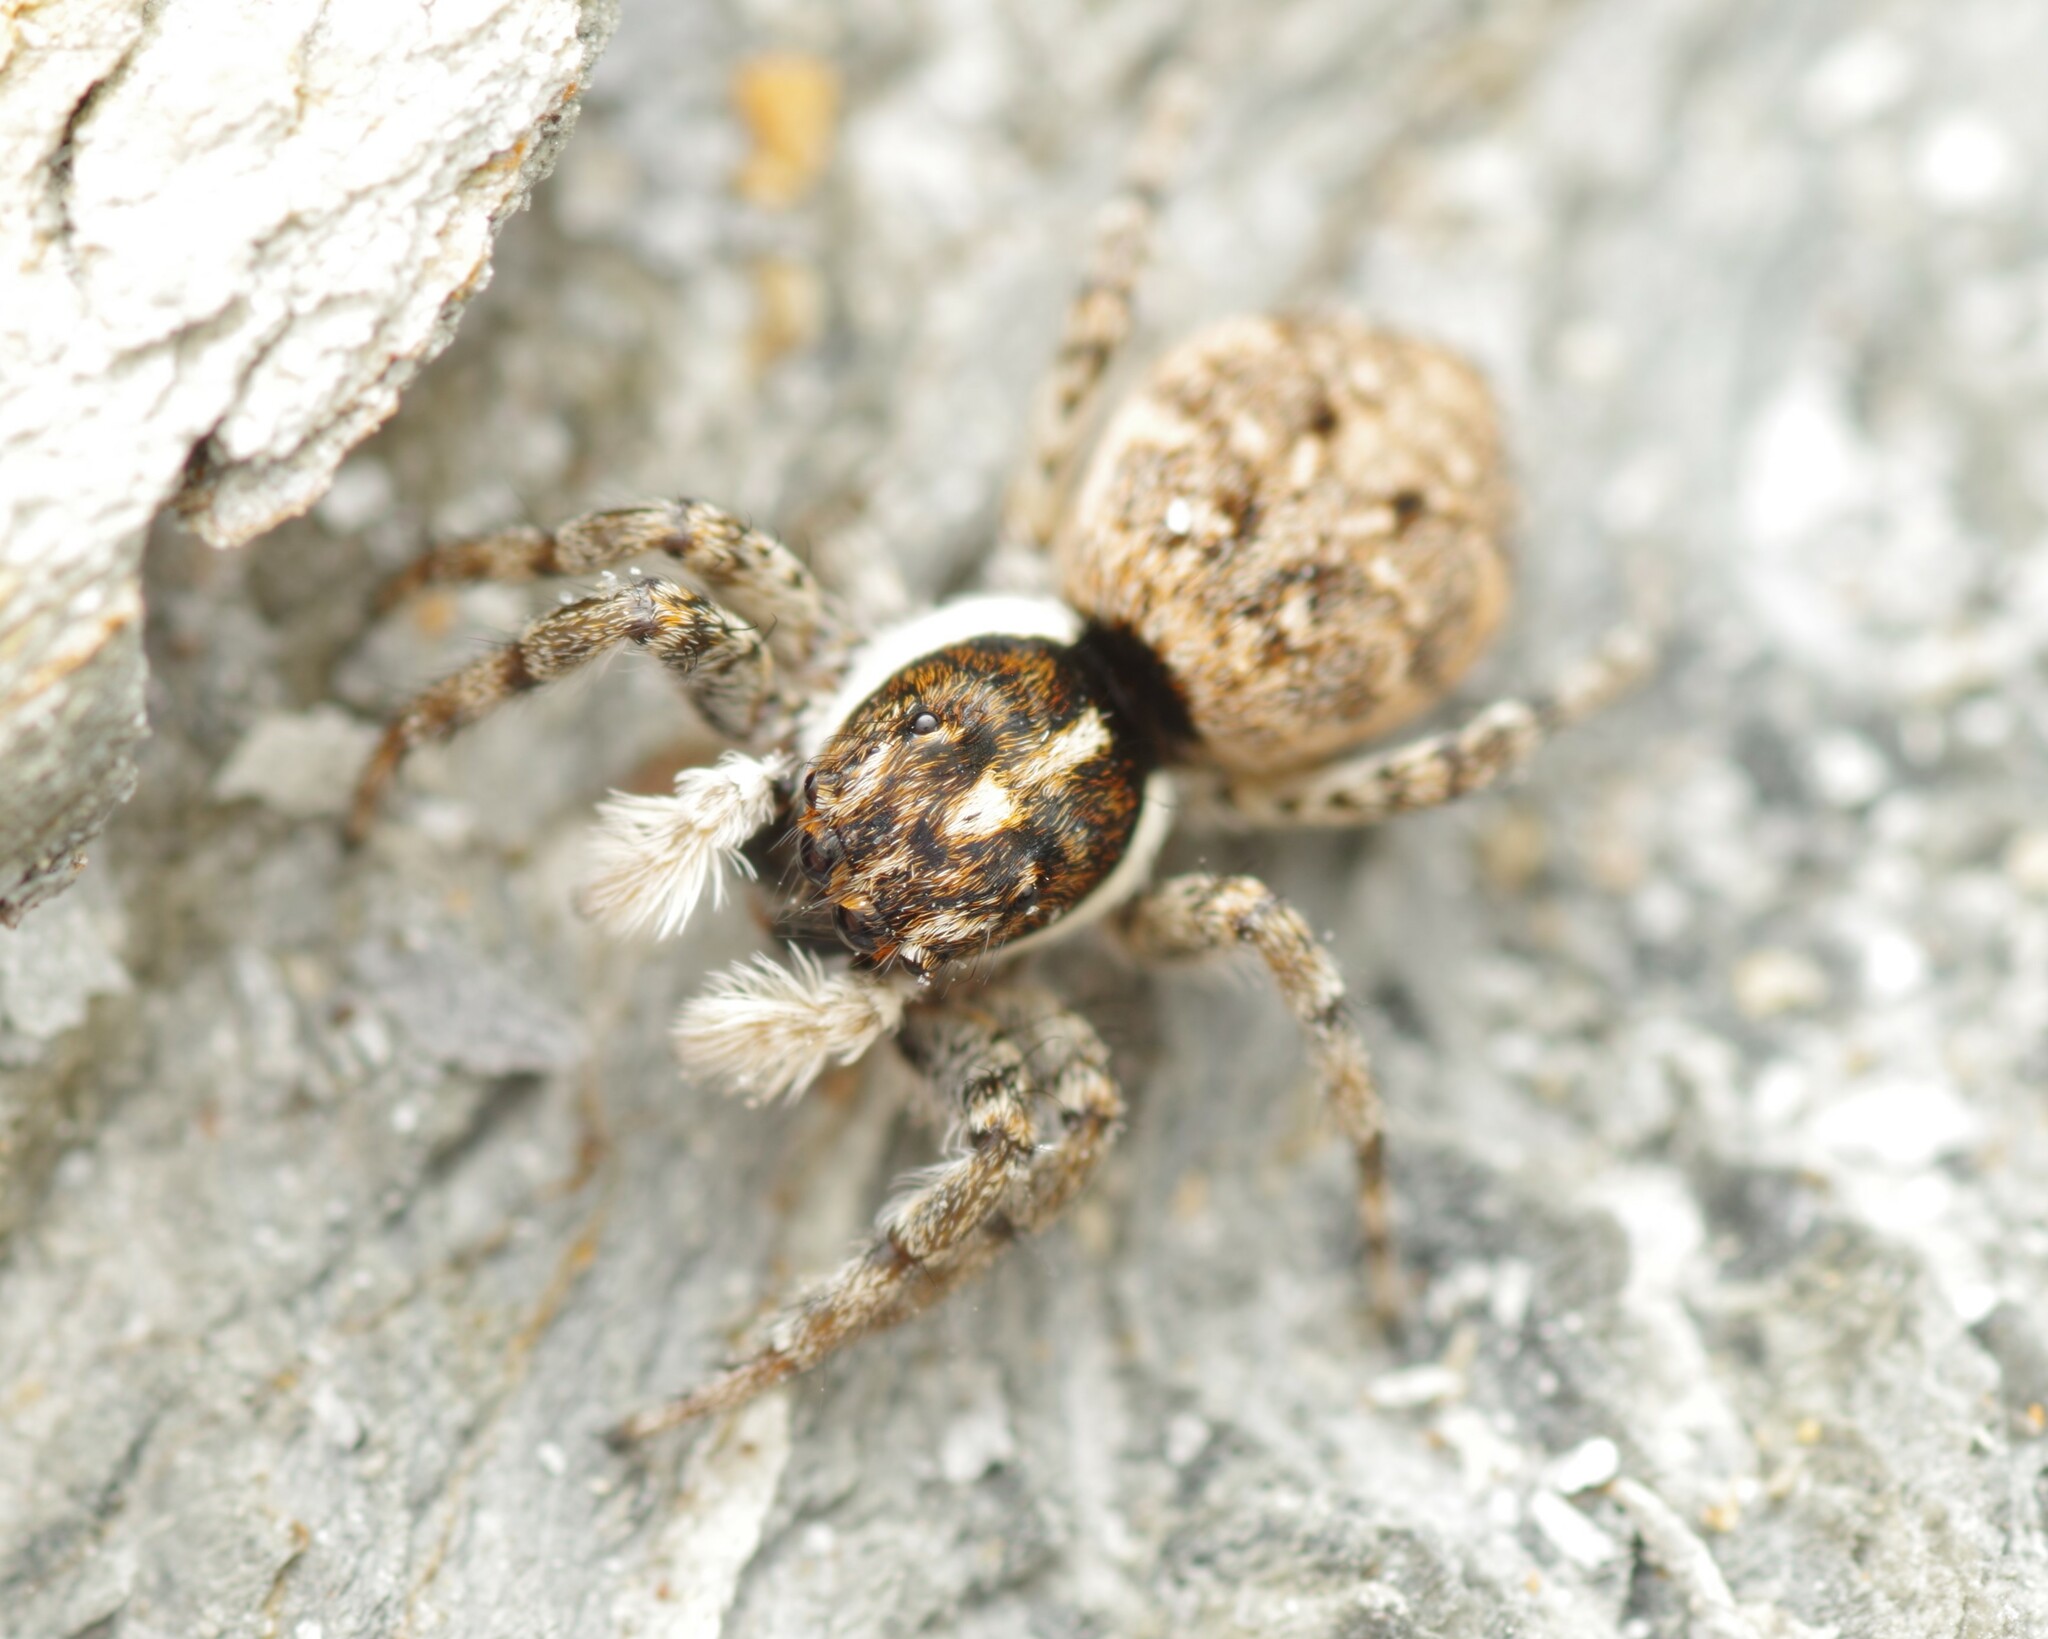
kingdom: Animalia
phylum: Arthropoda
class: Arachnida
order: Araneae
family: Salticidae
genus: Menemerus
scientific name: Menemerus semilimbatus
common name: Jumping spider
